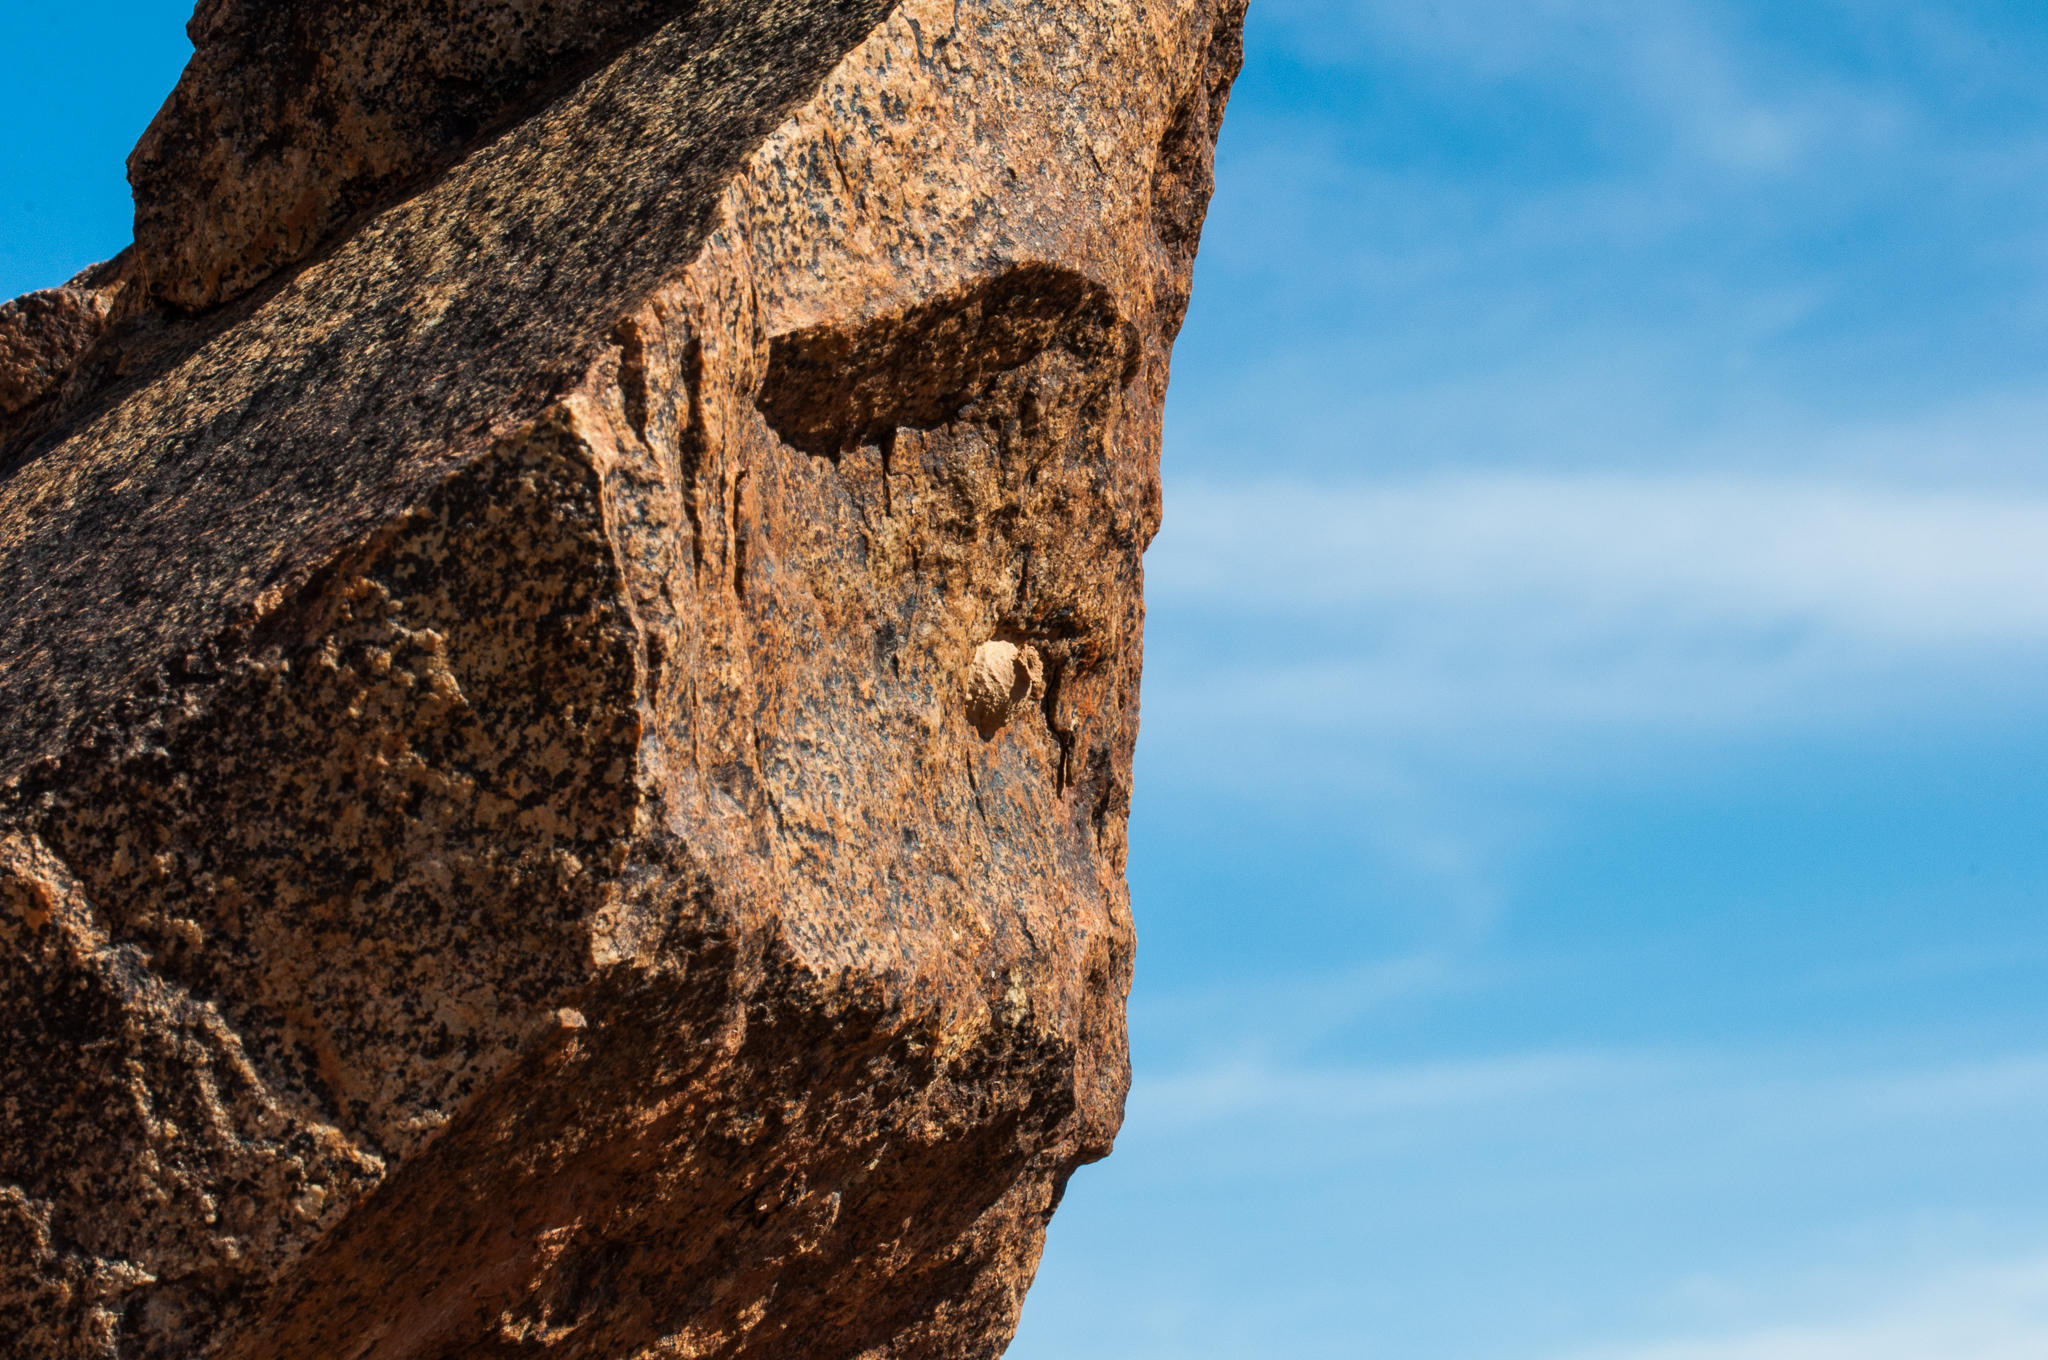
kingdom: Animalia
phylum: Arthropoda
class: Insecta
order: Hymenoptera
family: Eumenidae
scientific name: Eumenidae
